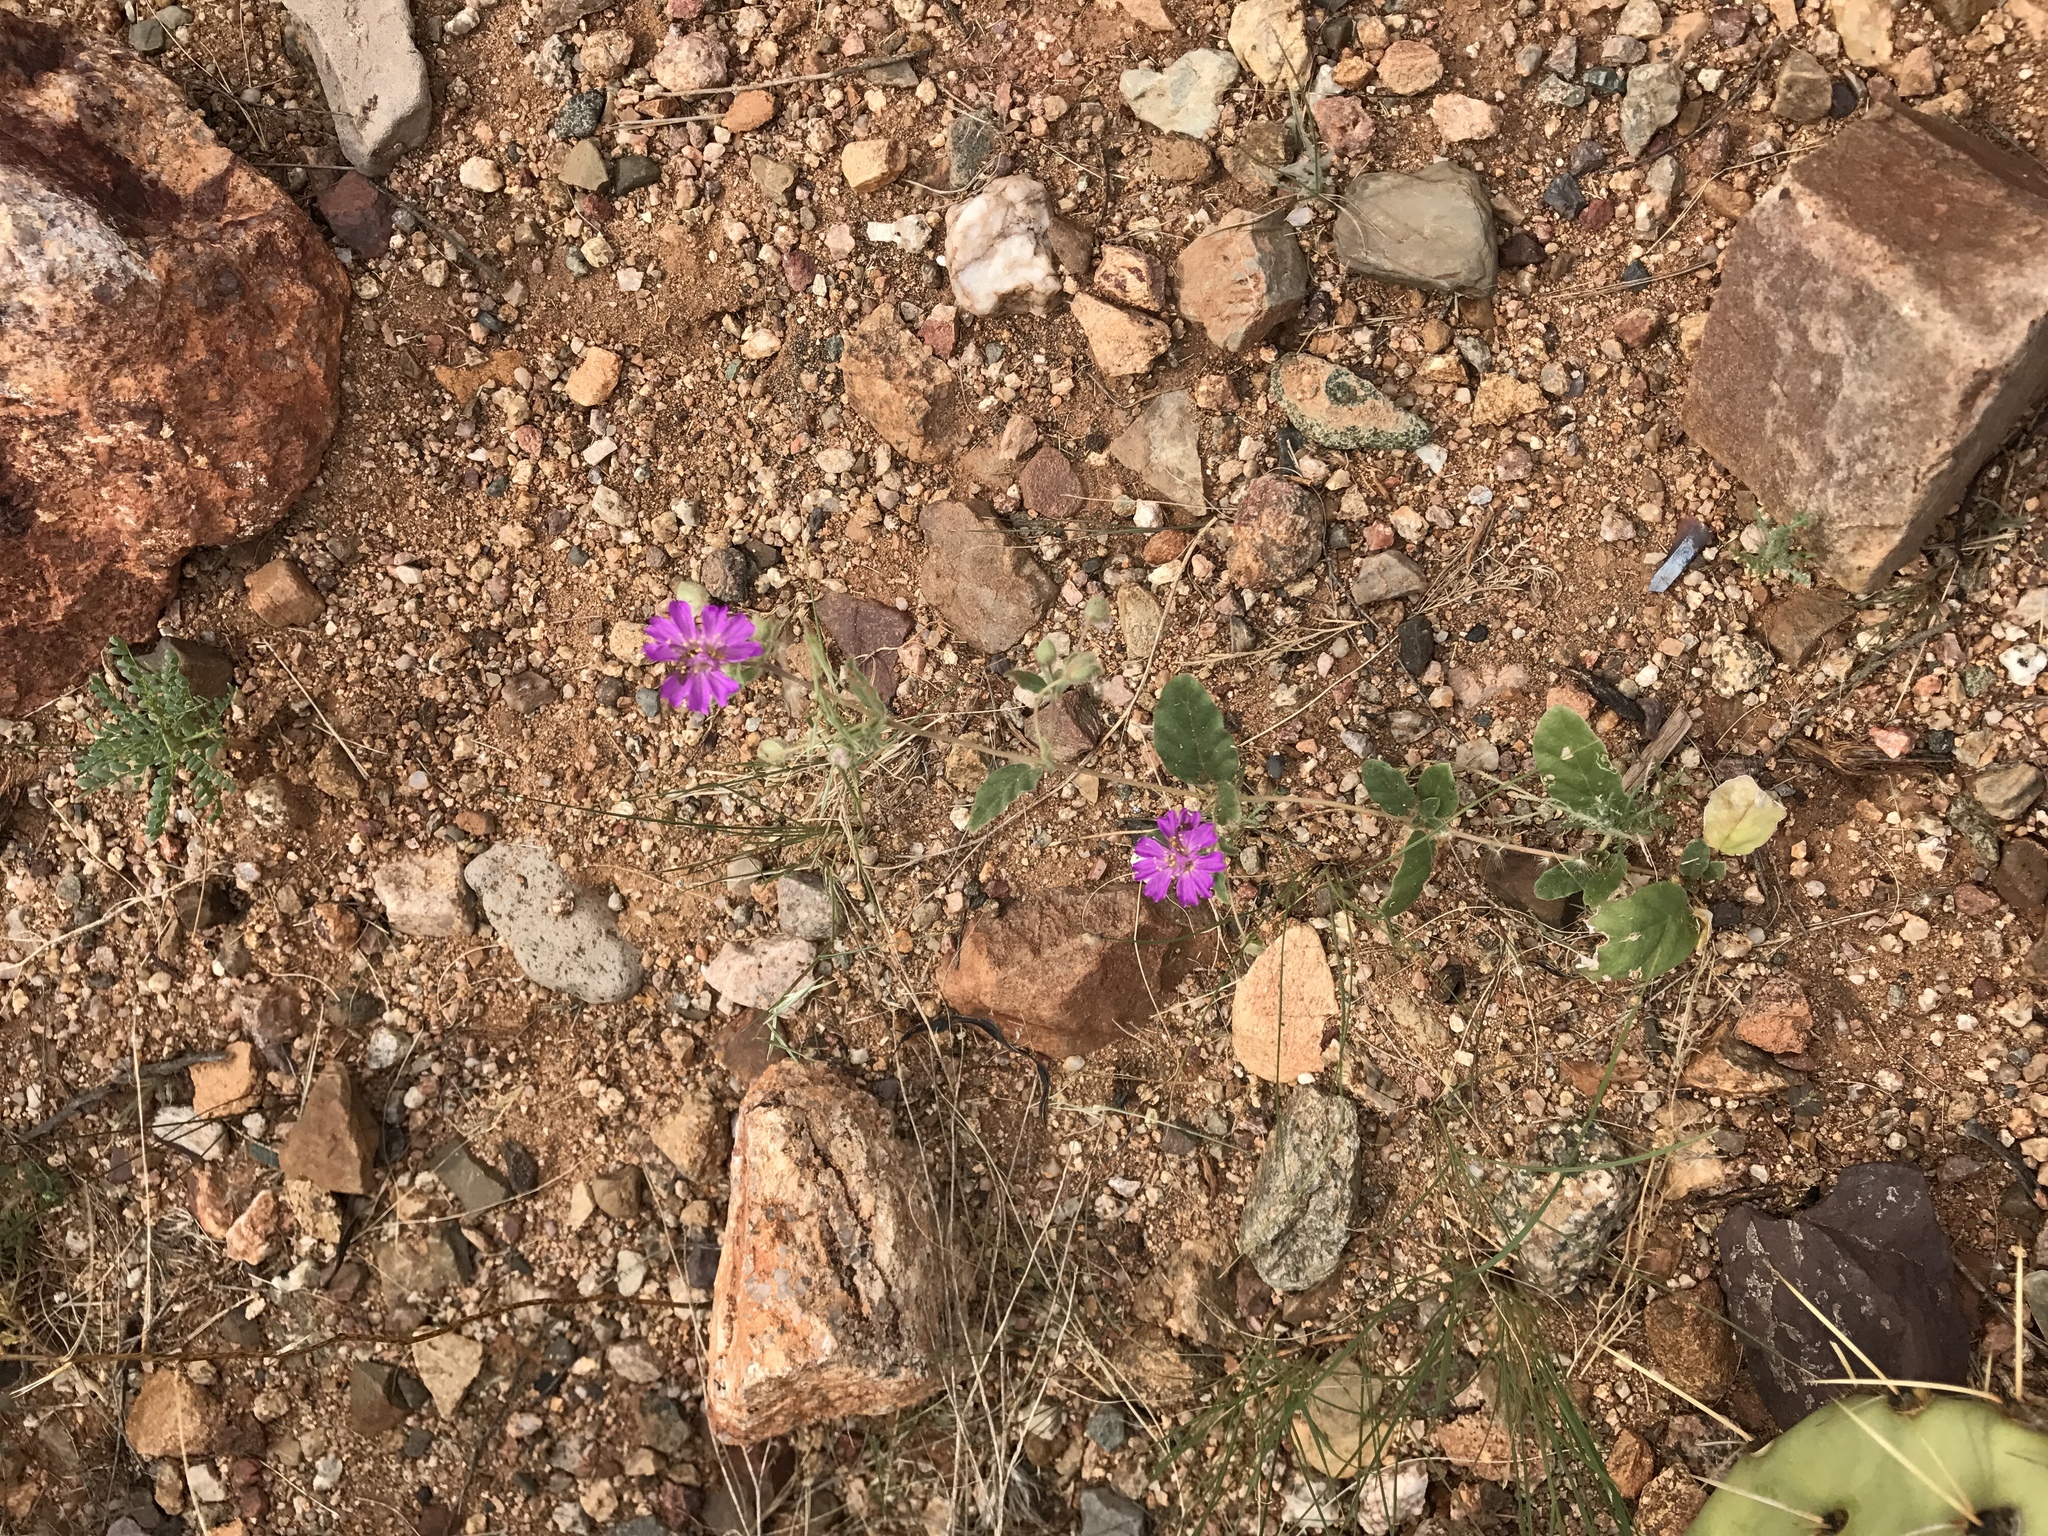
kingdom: Plantae
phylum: Tracheophyta
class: Magnoliopsida
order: Caryophyllales
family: Nyctaginaceae
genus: Allionia
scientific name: Allionia incarnata
